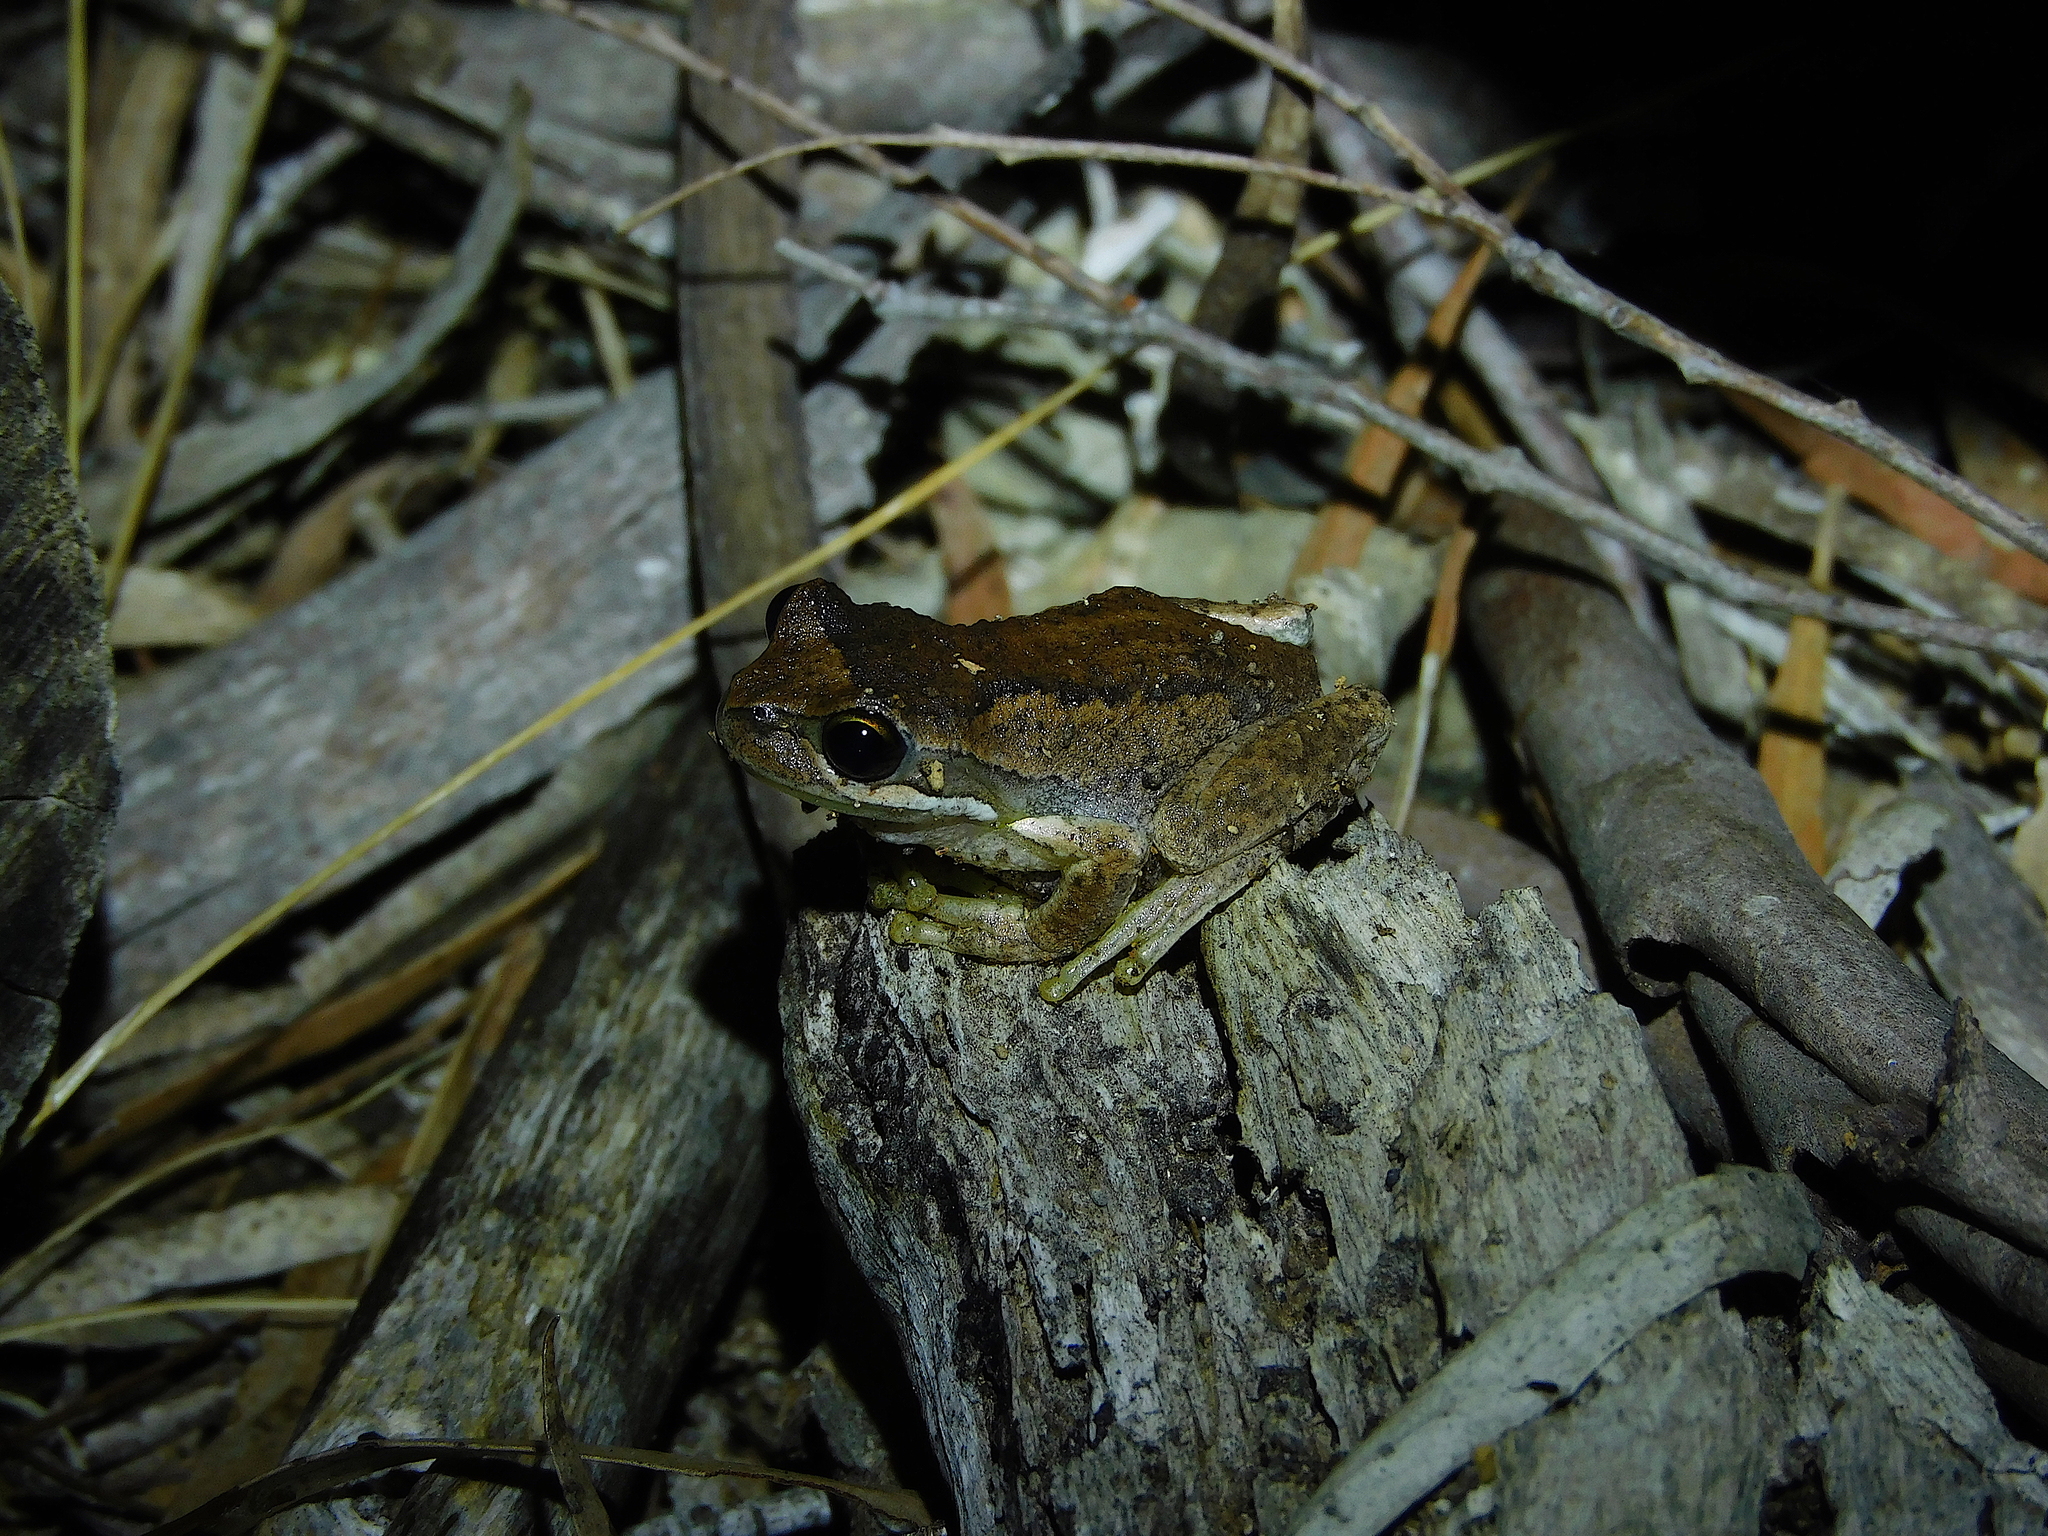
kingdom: Animalia
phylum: Chordata
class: Amphibia
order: Anura
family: Pelodryadidae
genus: Litoria
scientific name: Litoria ewingii
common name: Southern brown tree frog
